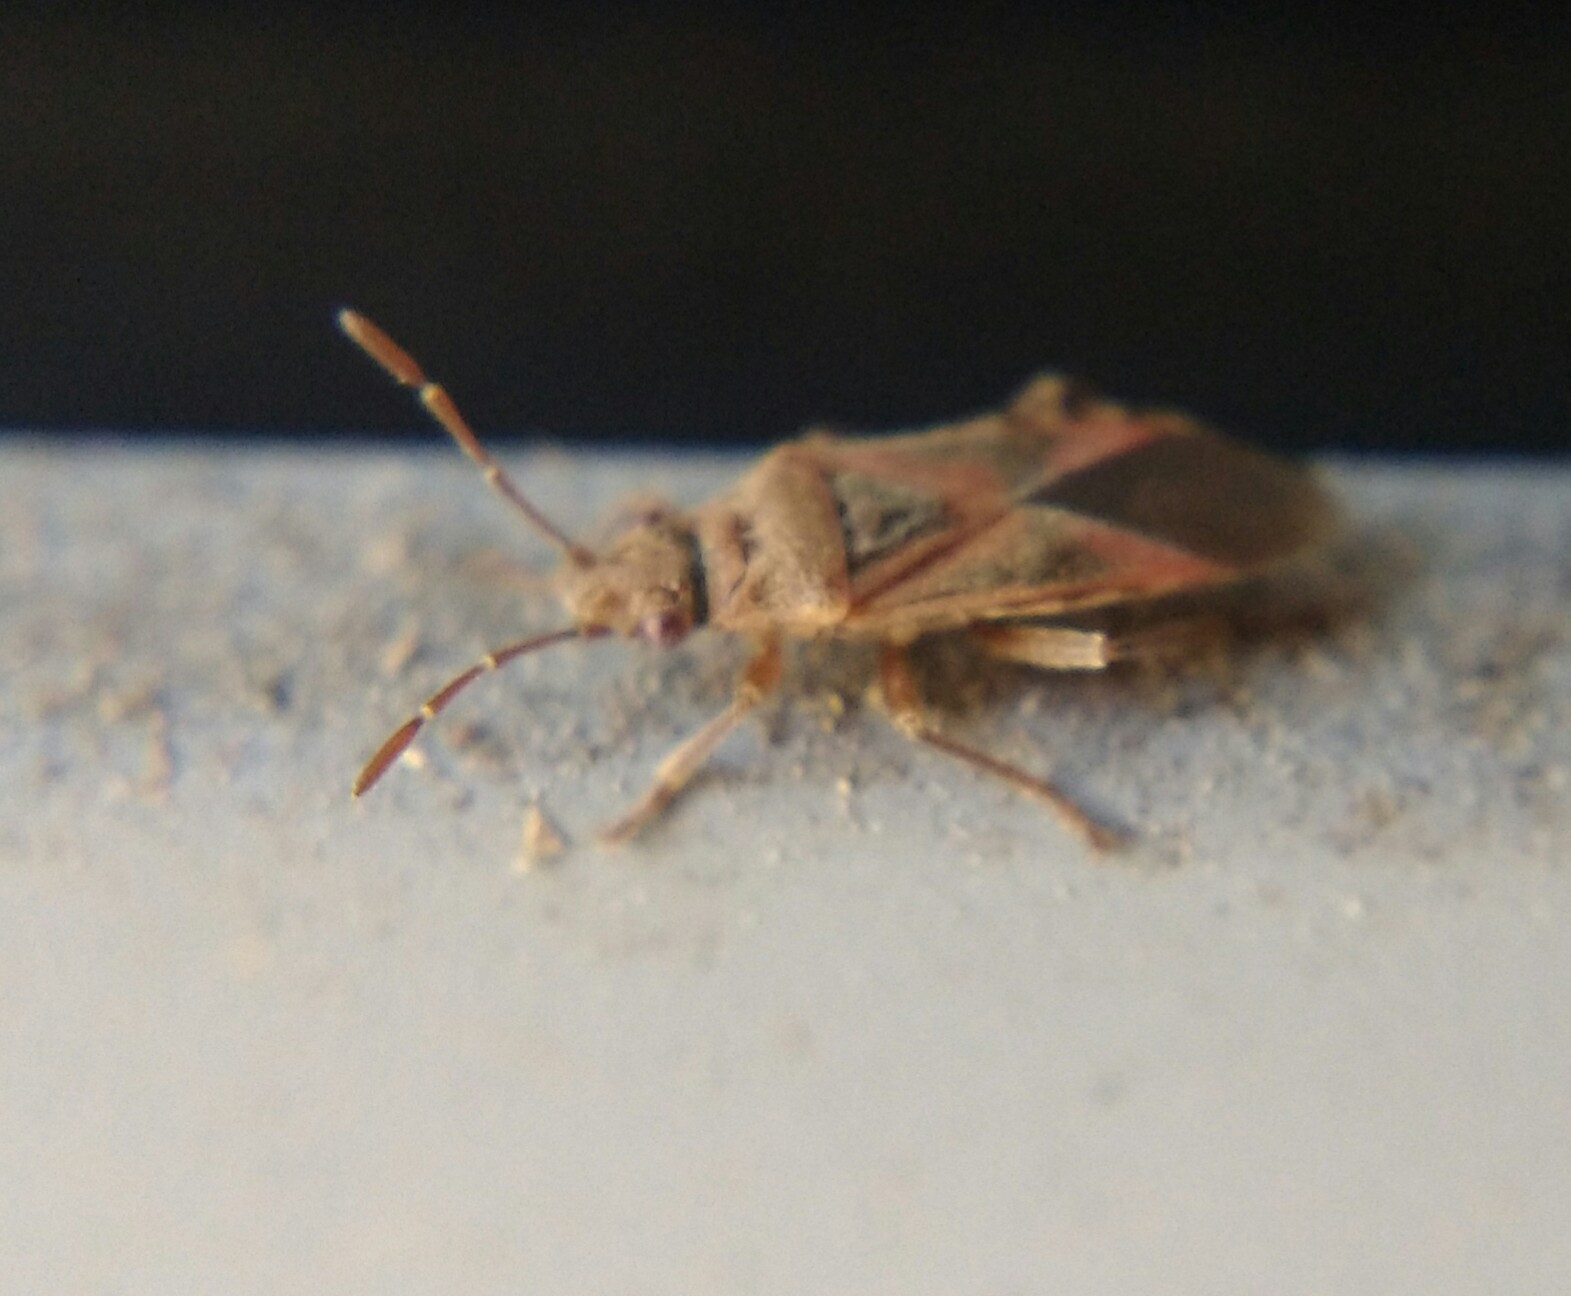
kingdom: Animalia
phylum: Arthropoda
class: Insecta
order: Hemiptera
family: Lygaeidae
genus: Arocatus
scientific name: Arocatus longiceps
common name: Plane tree bug
